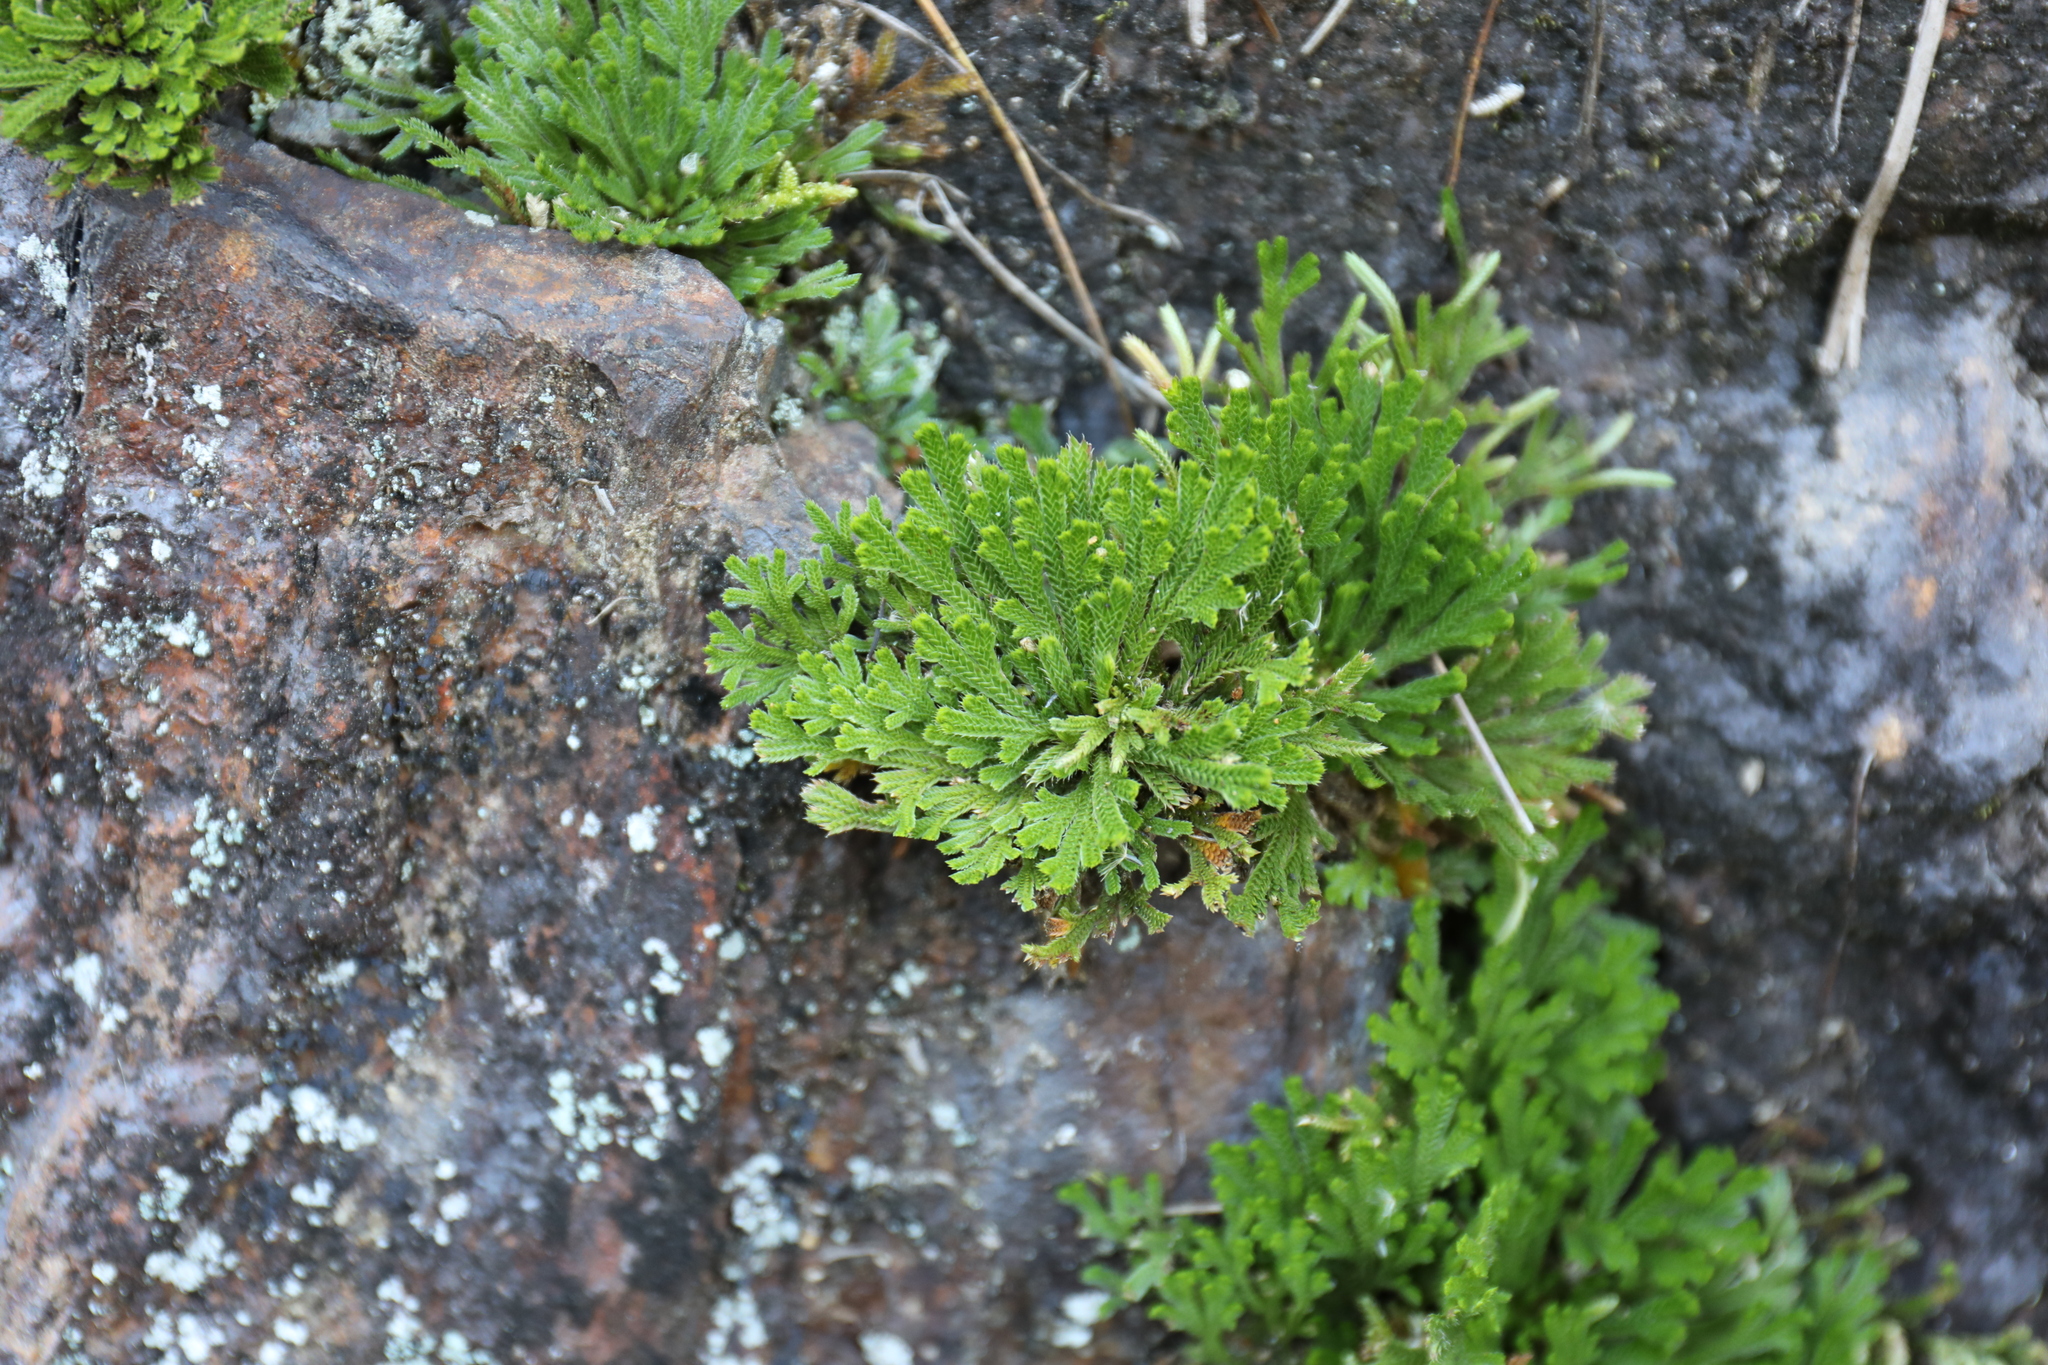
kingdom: Plantae
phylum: Tracheophyta
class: Lycopodiopsida
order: Selaginellales
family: Selaginellaceae
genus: Selaginella
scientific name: Selaginella tamariscina
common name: Little-club-moss
